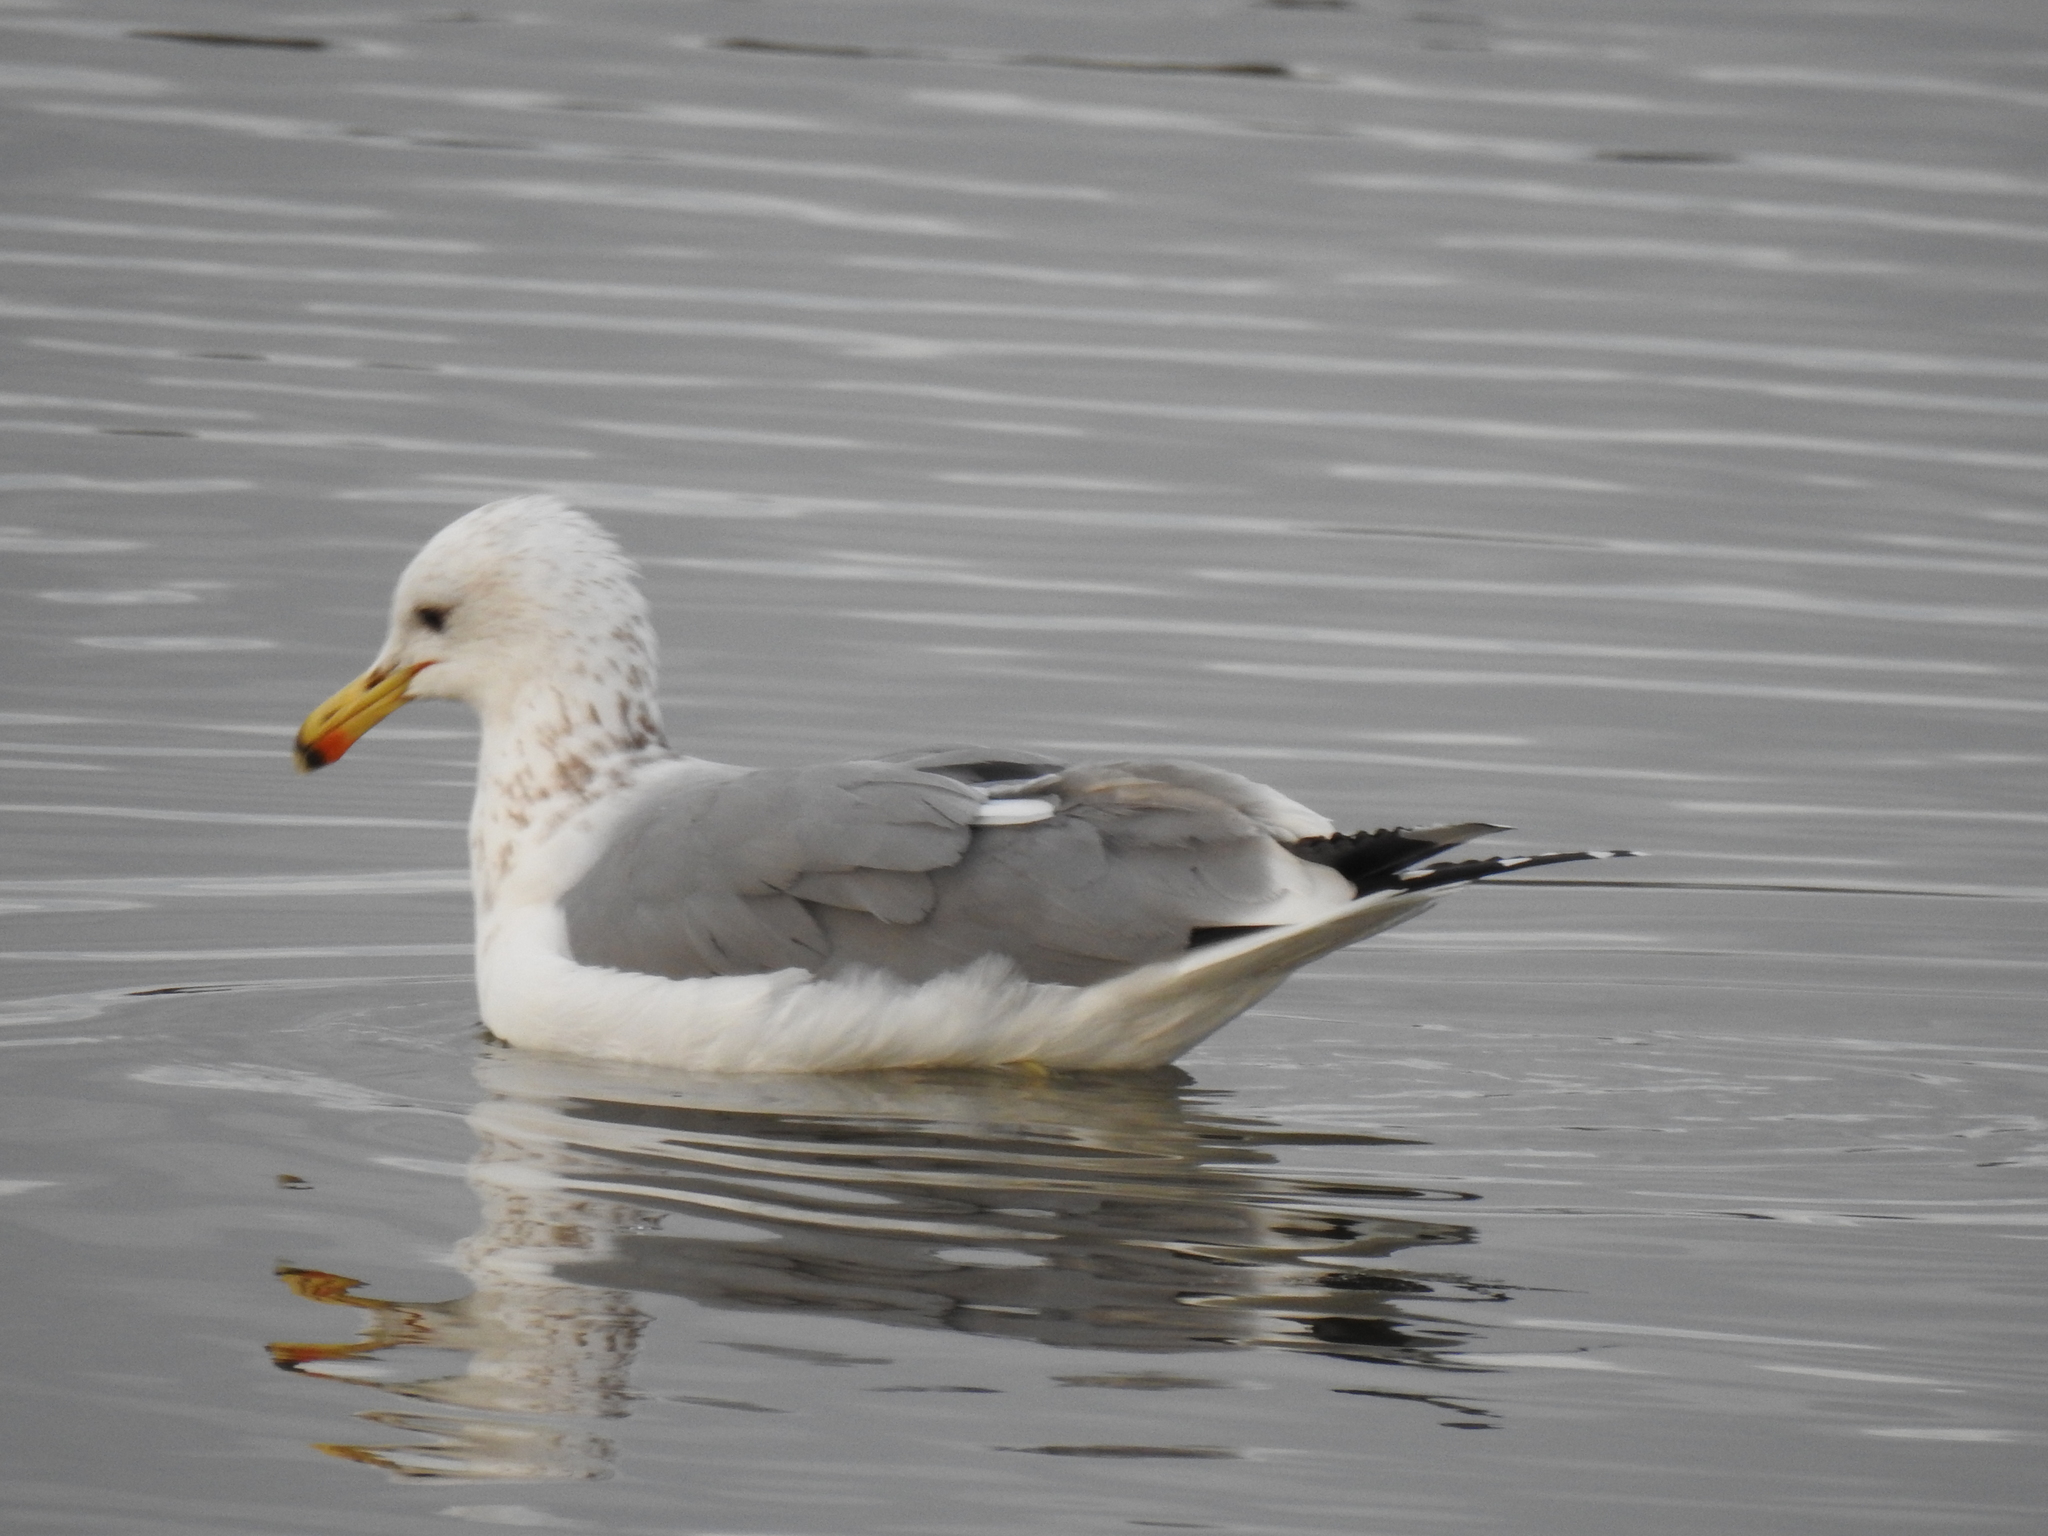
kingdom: Animalia
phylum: Chordata
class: Aves
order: Charadriiformes
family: Laridae
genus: Larus
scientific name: Larus californicus
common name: California gull
